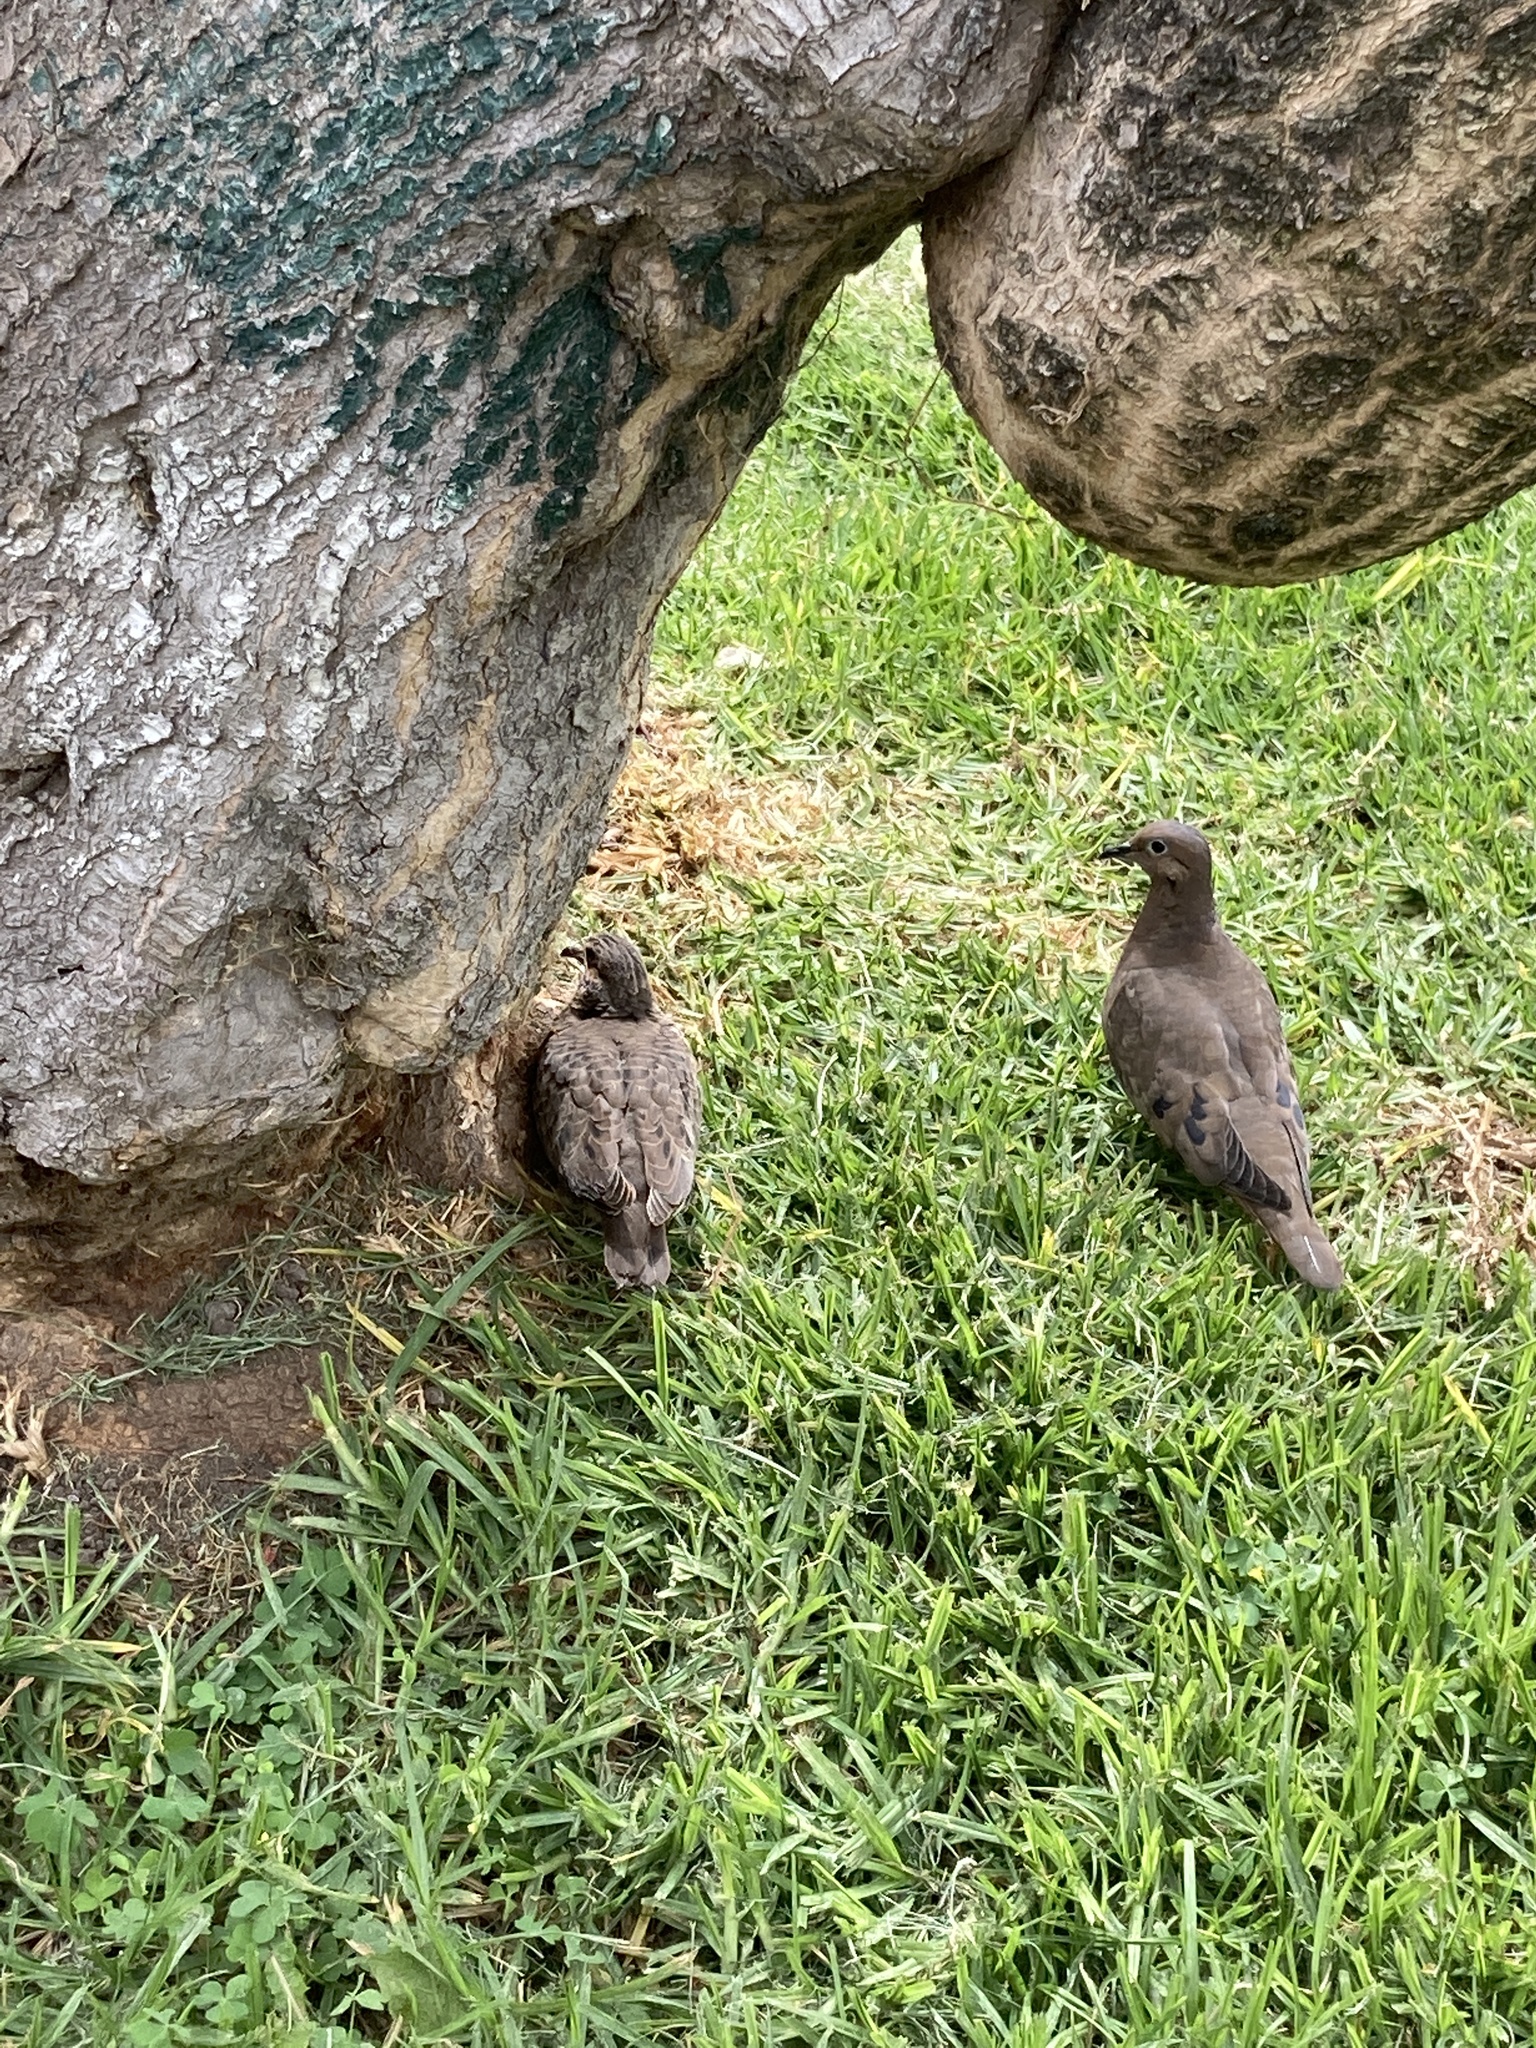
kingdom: Animalia
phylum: Chordata
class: Aves
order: Columbiformes
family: Columbidae
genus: Zenaida
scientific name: Zenaida auriculata
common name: Eared dove
